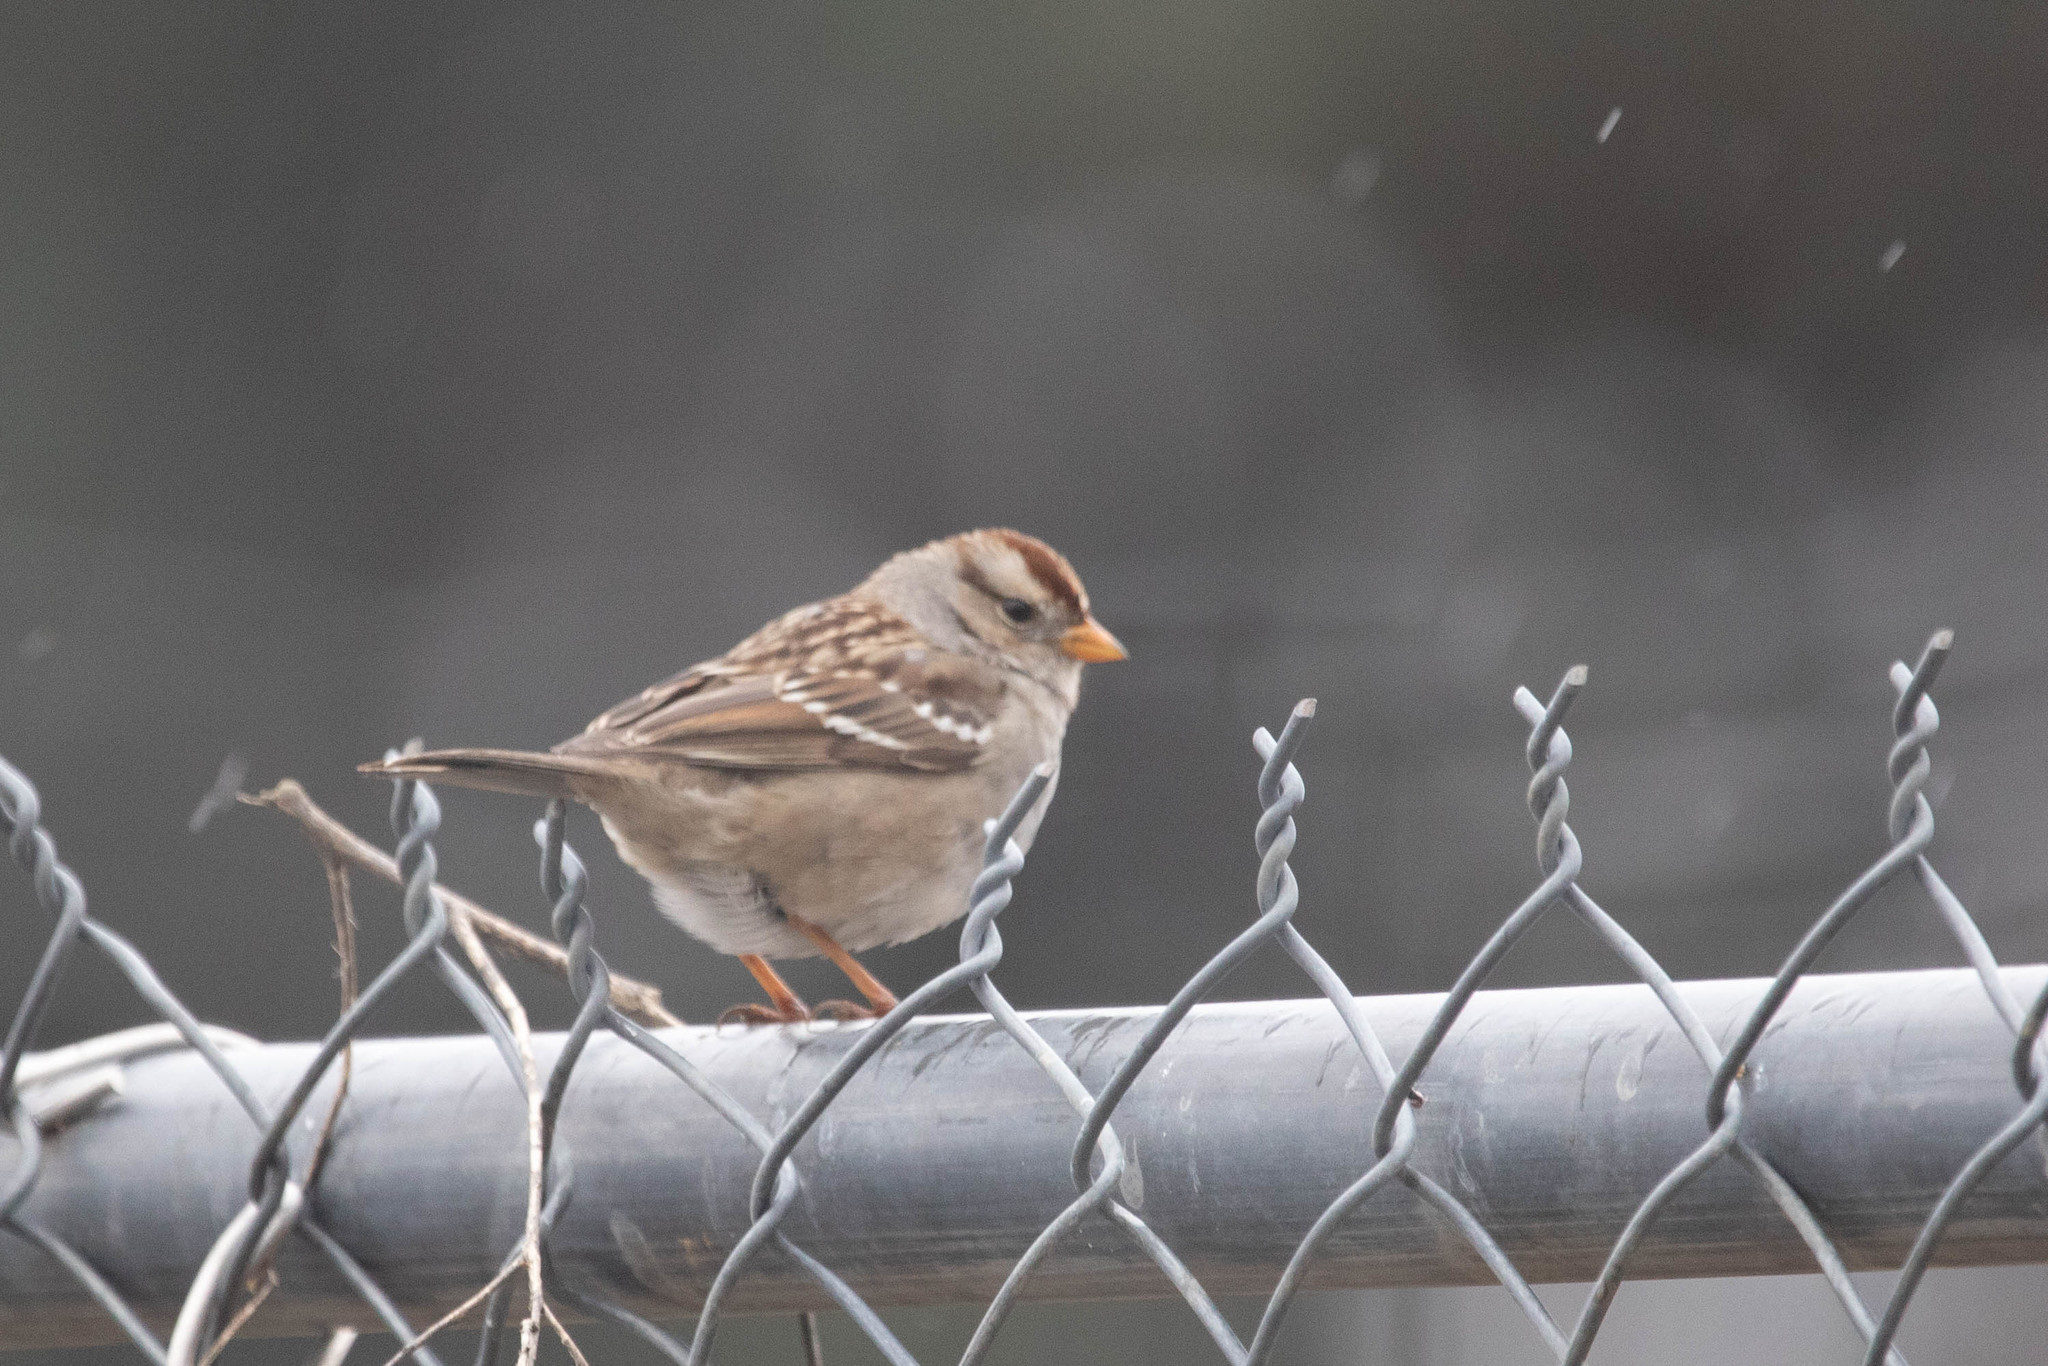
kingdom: Animalia
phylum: Chordata
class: Aves
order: Passeriformes
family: Passerellidae
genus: Zonotrichia
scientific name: Zonotrichia leucophrys
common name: White-crowned sparrow
